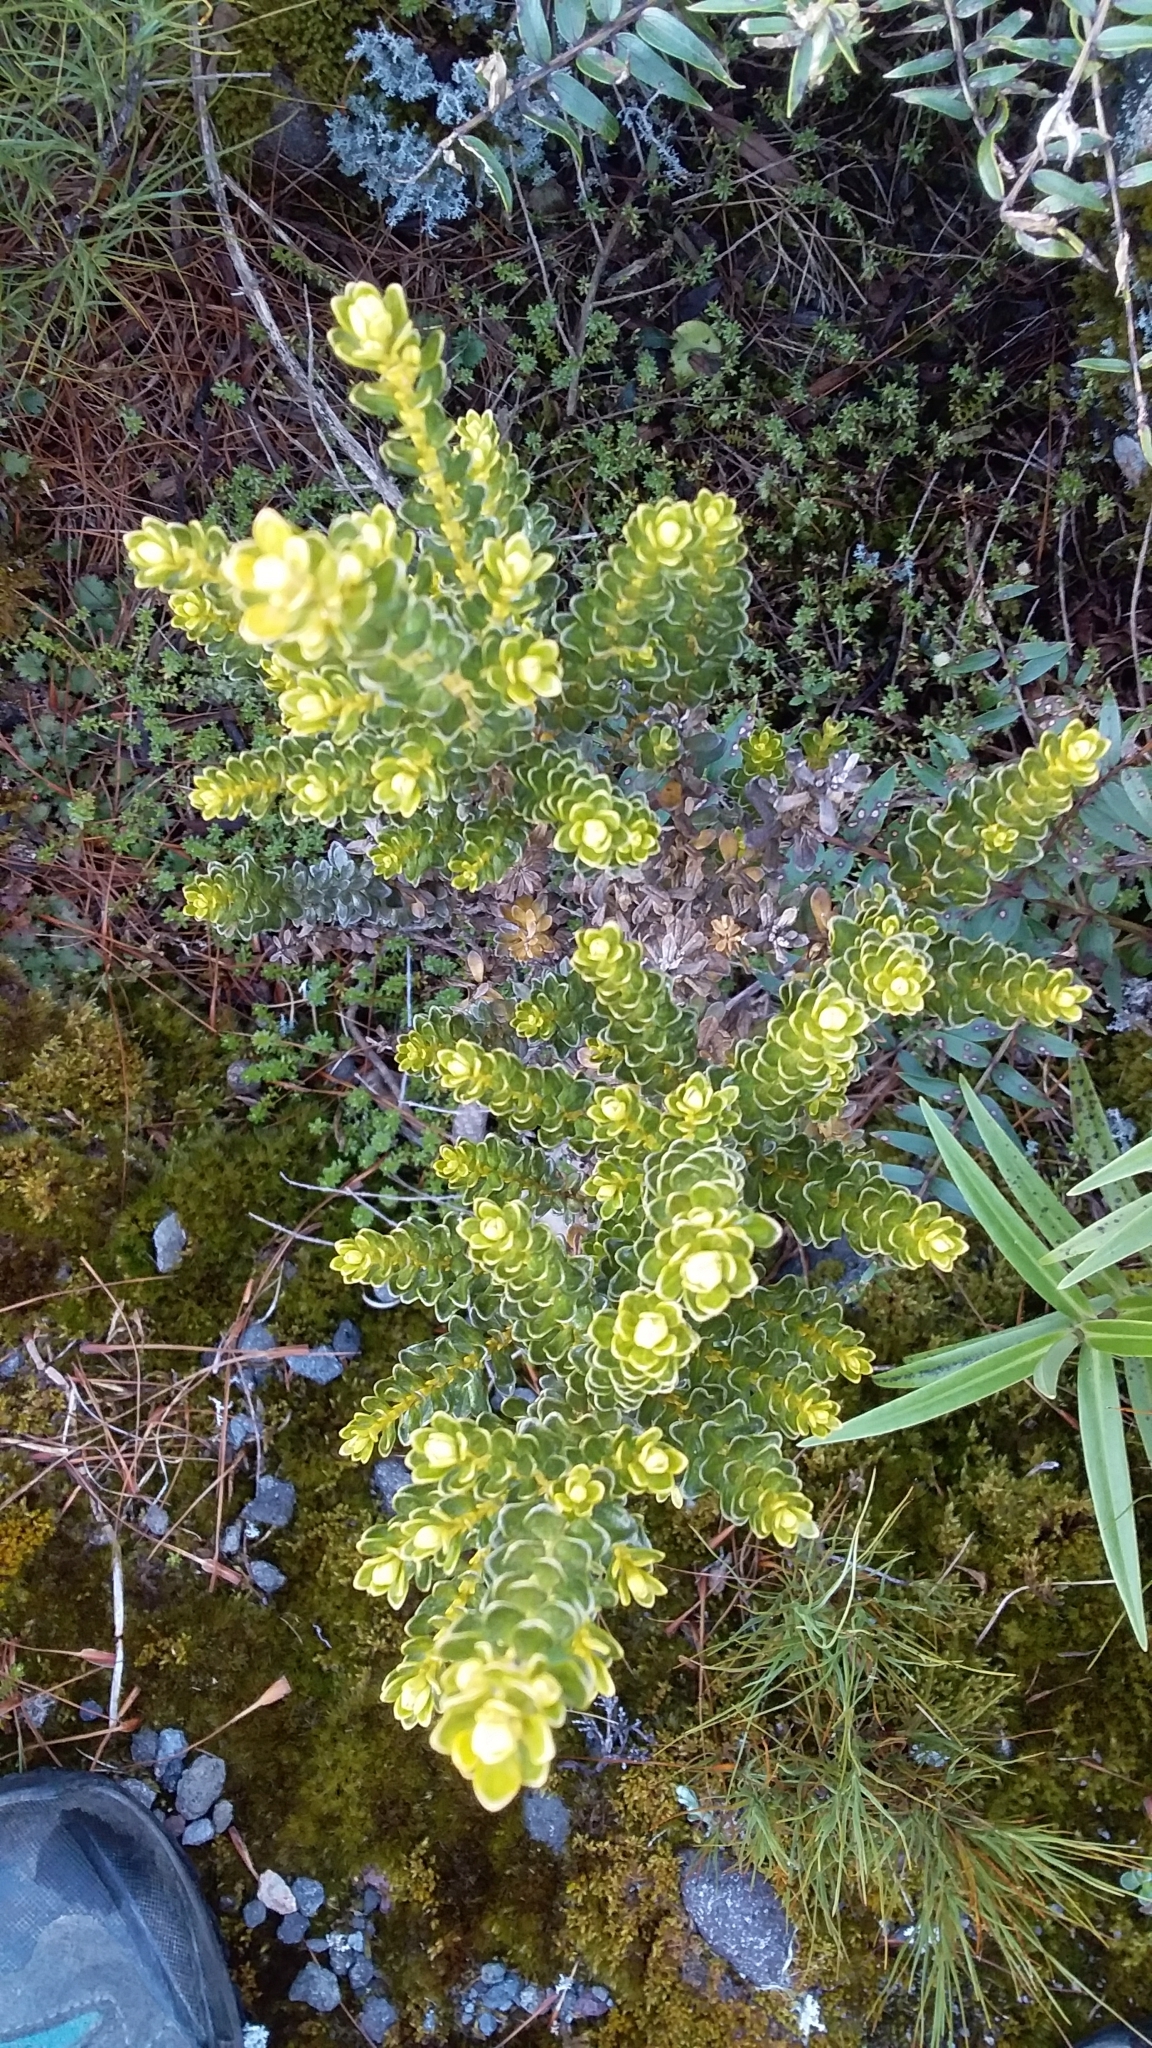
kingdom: Plantae
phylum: Tracheophyta
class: Magnoliopsida
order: Asterales
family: Asteraceae
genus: Ozothamnus
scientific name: Ozothamnus leptophyllus
